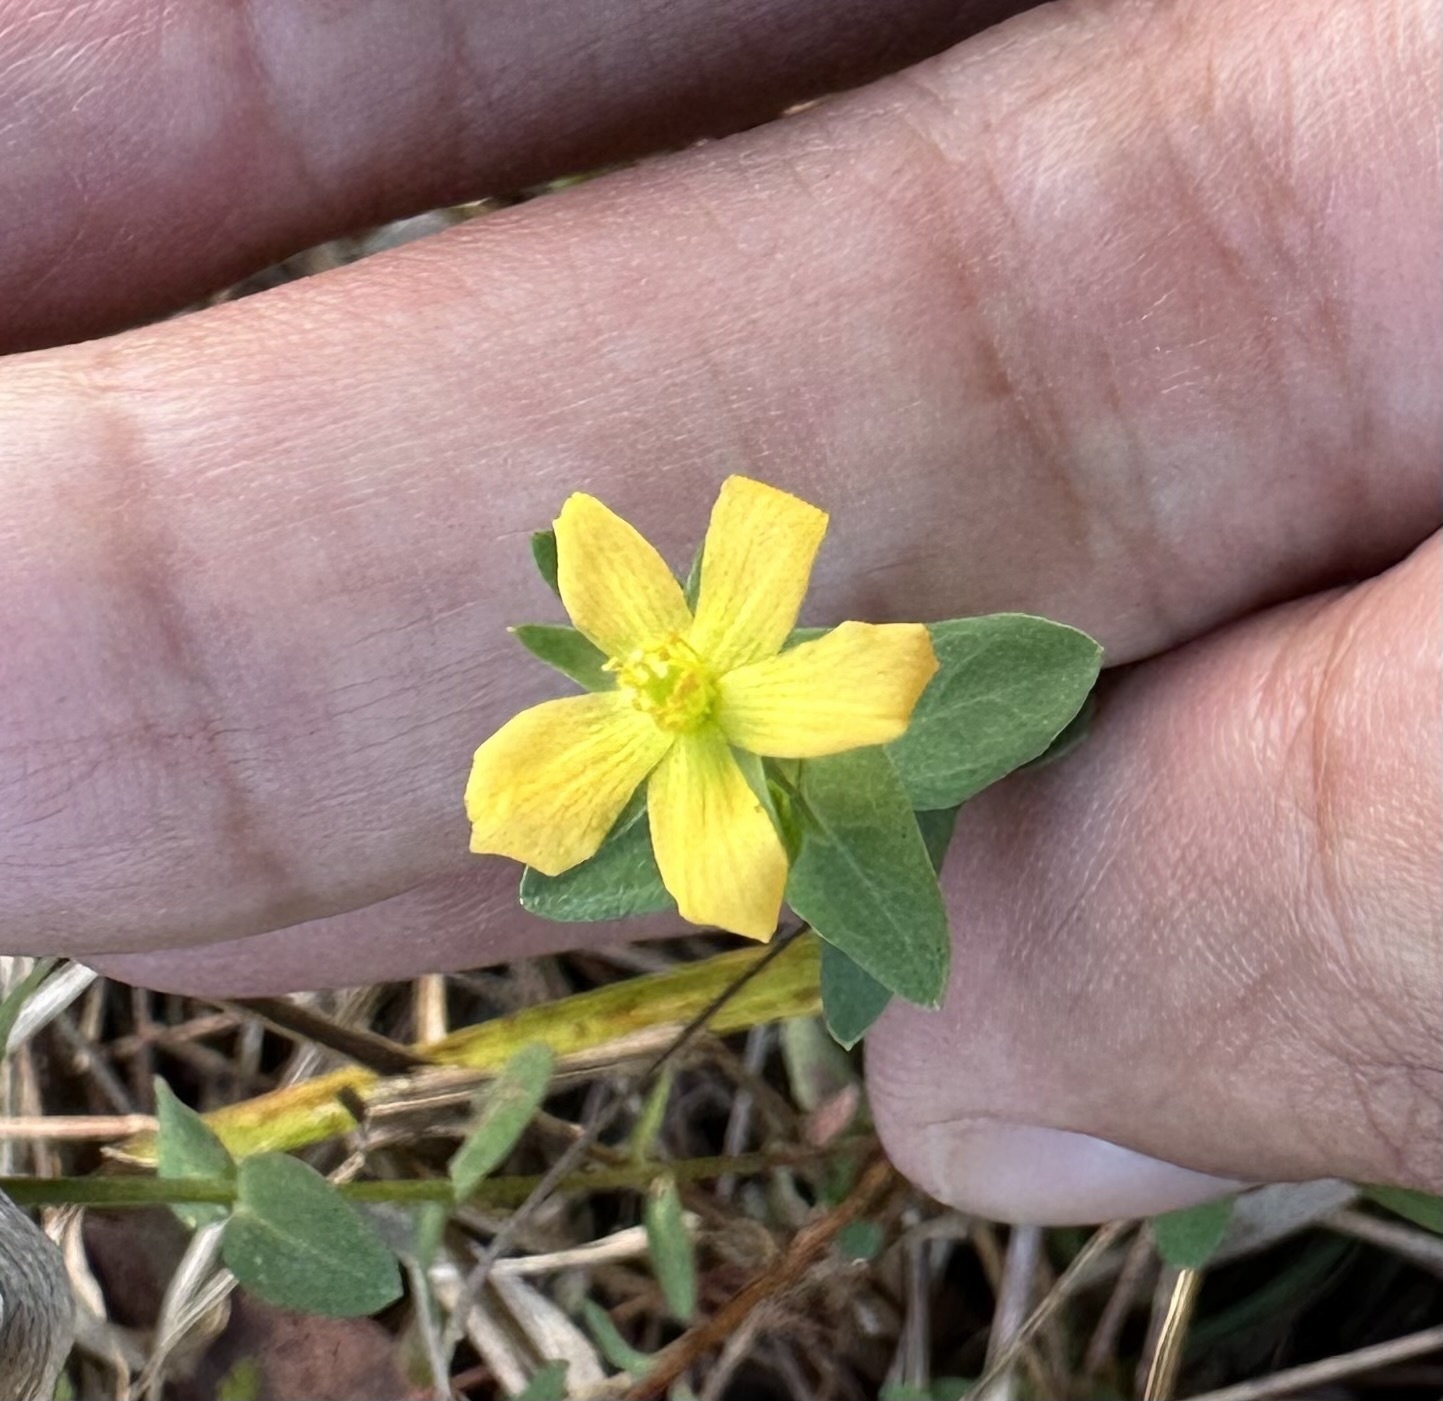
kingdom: Plantae
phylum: Tracheophyta
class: Magnoliopsida
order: Malpighiales
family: Hypericaceae
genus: Hypericum
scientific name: Hypericum gramineum
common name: Grassy st. johnswort
